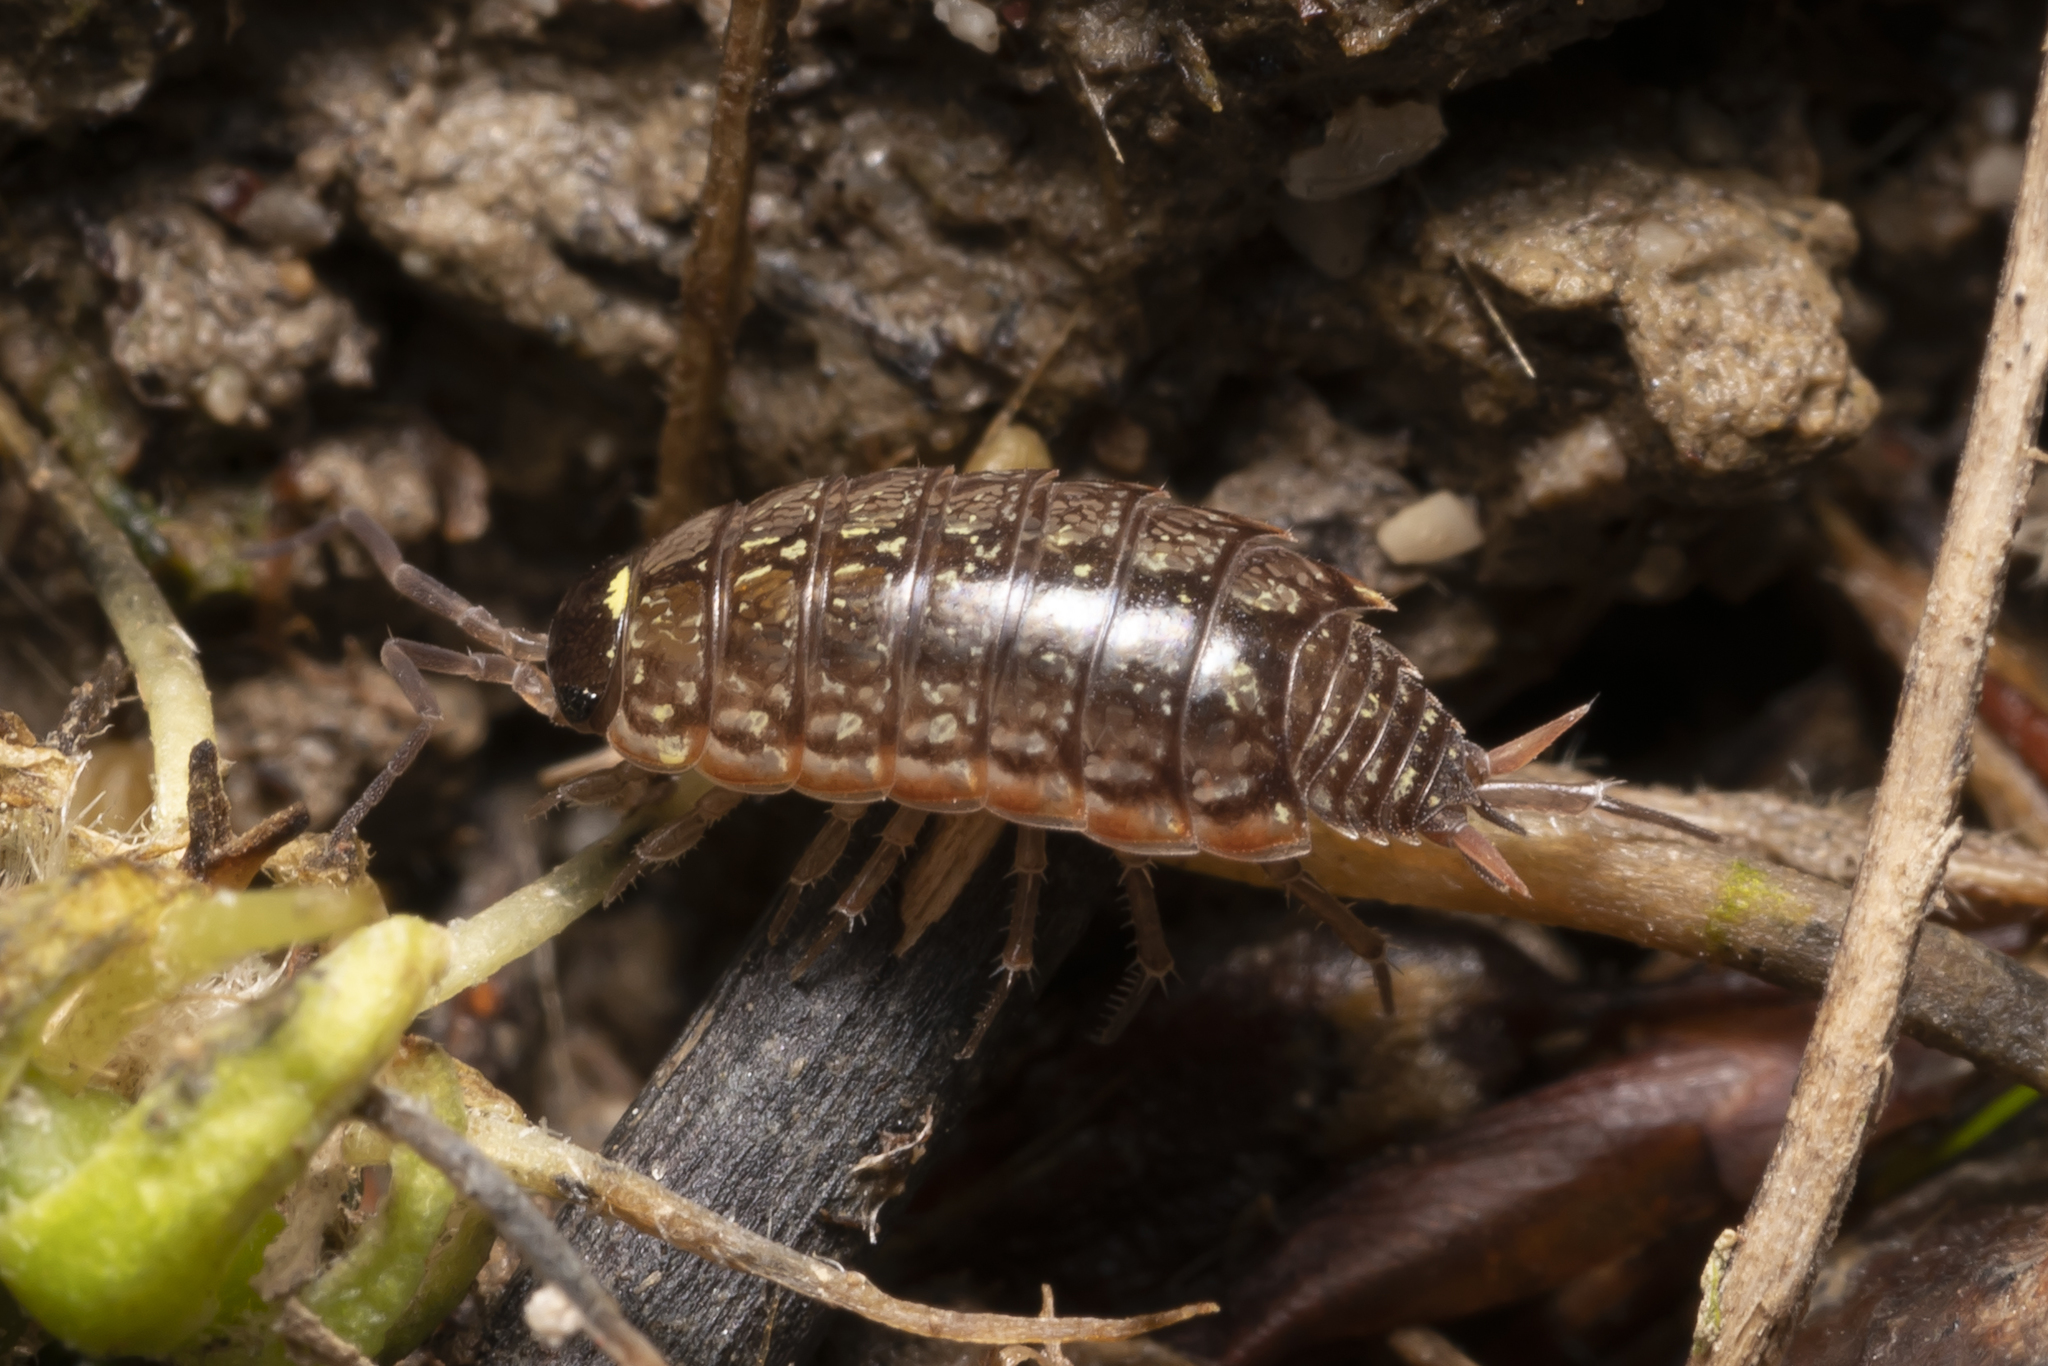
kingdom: Animalia
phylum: Arthropoda
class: Malacostraca
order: Isopoda
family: Philosciidae
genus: Philoscia
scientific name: Philoscia muscorum
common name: Common striped woodlouse
